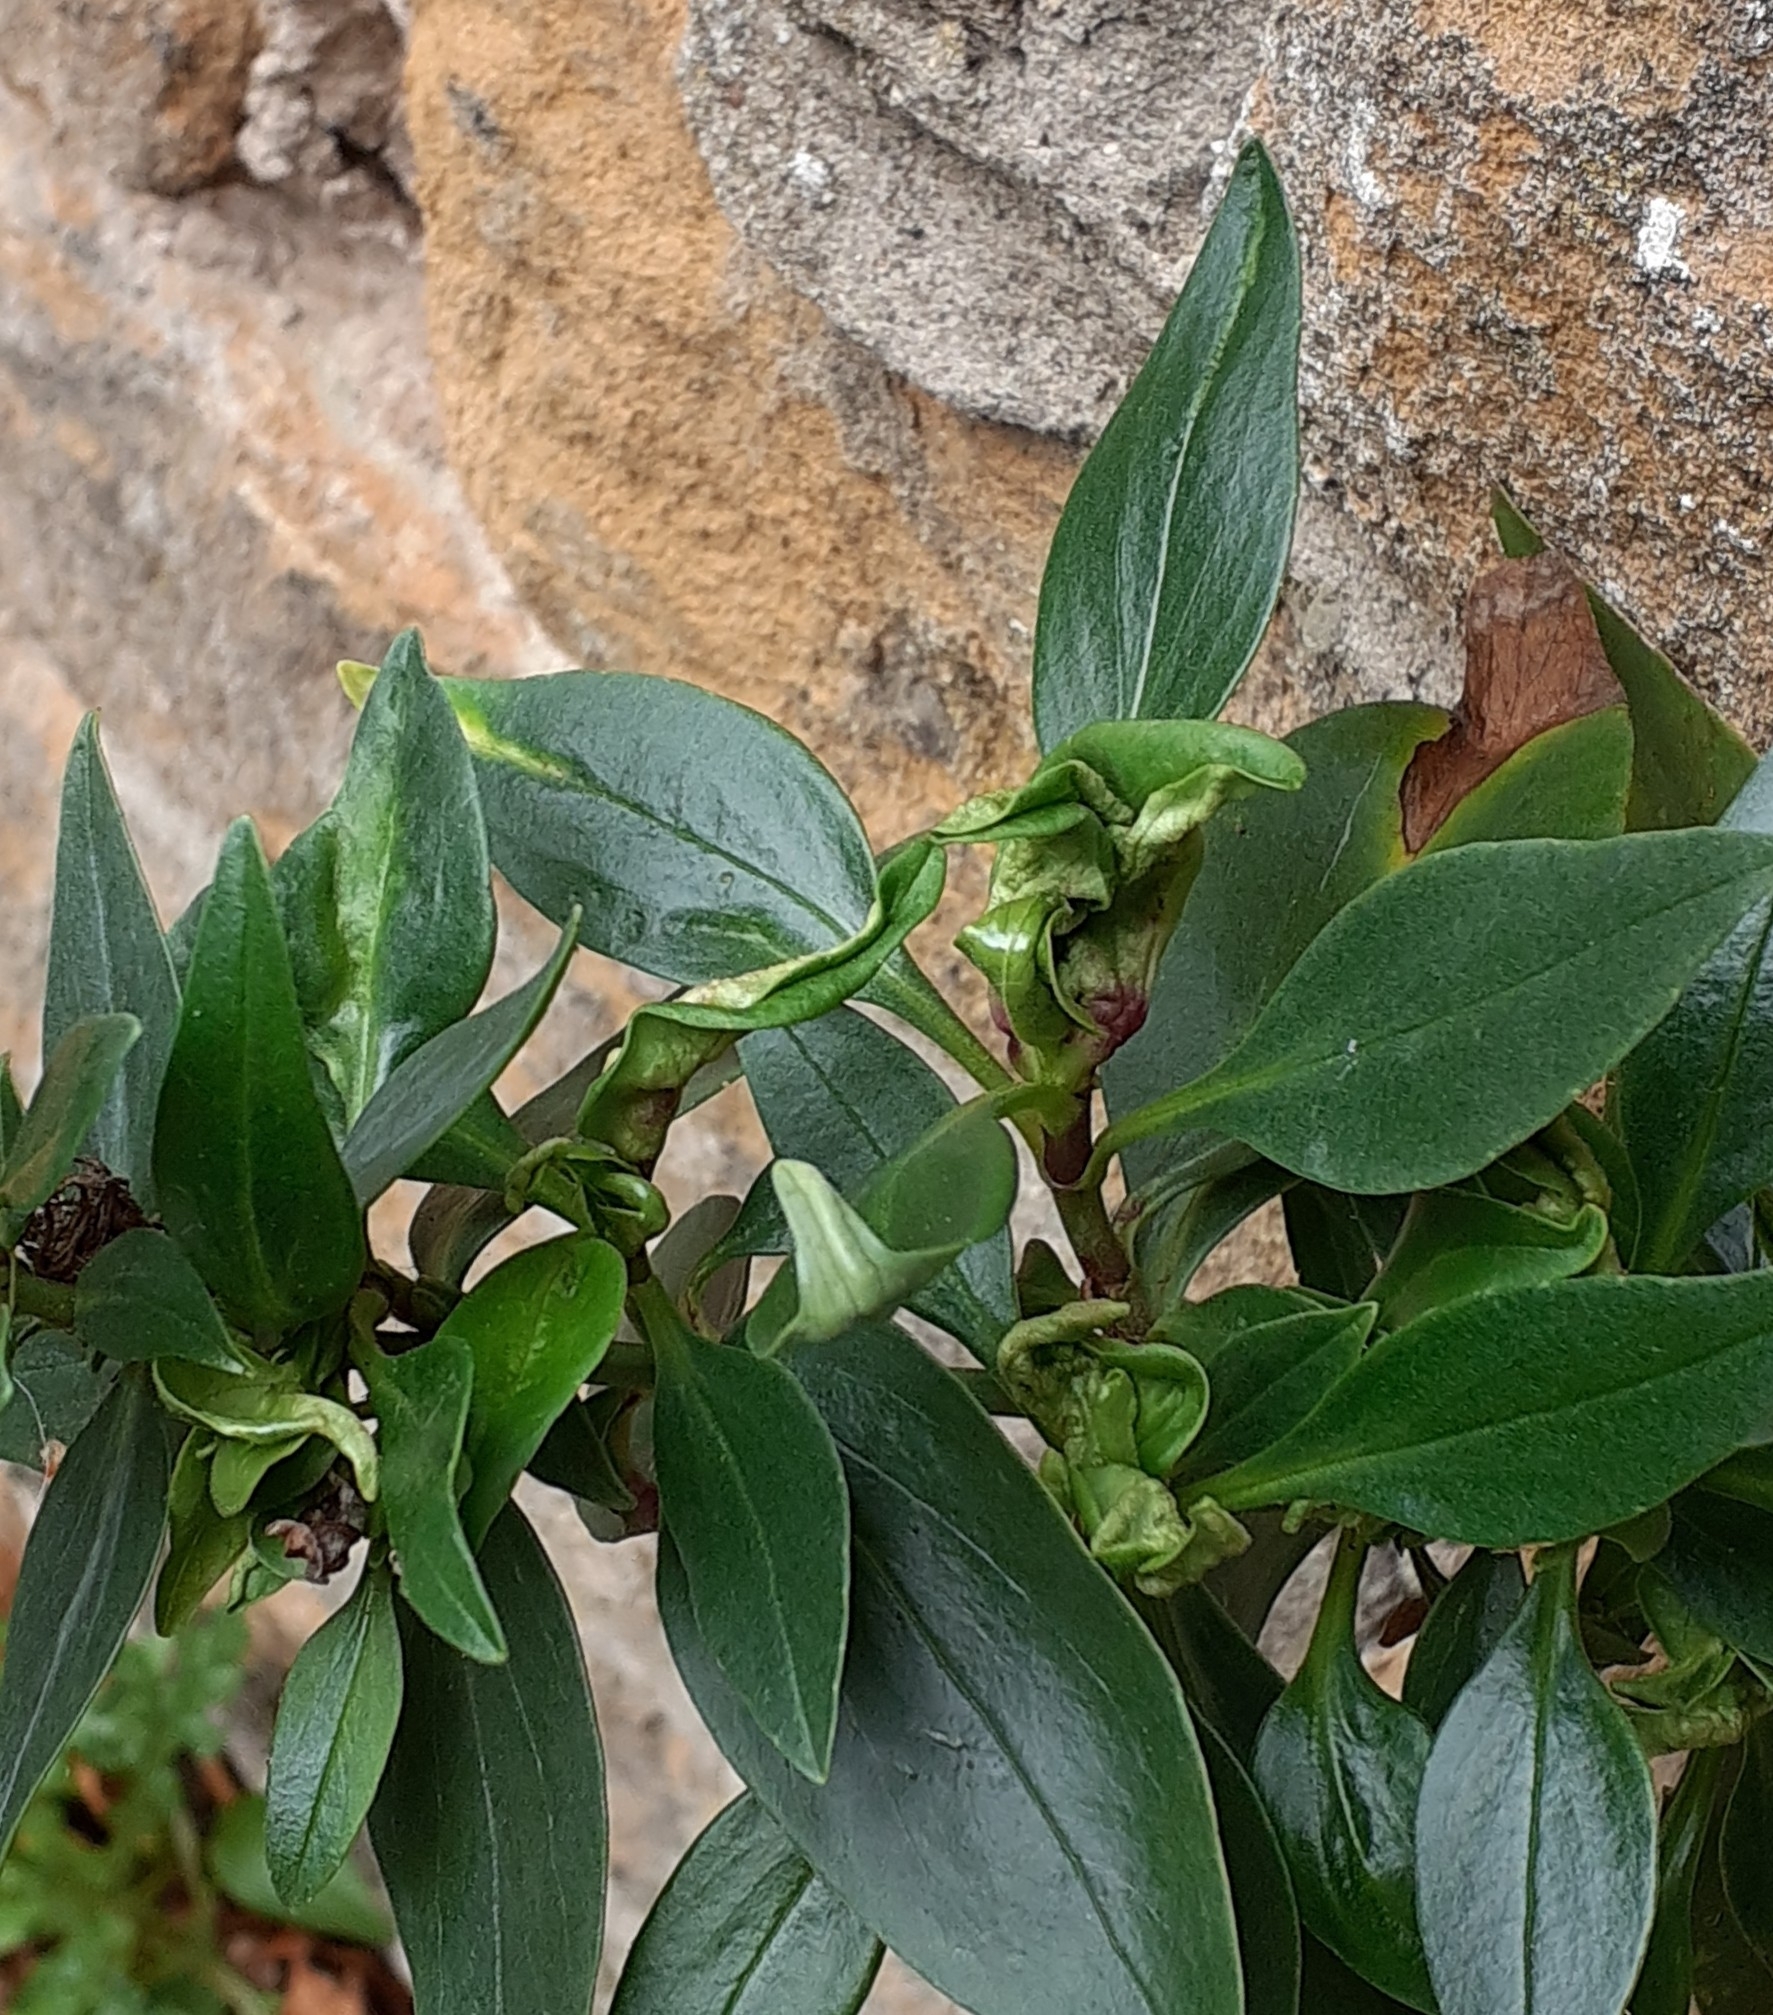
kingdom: Animalia
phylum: Arthropoda
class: Insecta
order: Hemiptera
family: Triozidae
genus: Trioza
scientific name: Trioza centranthi
